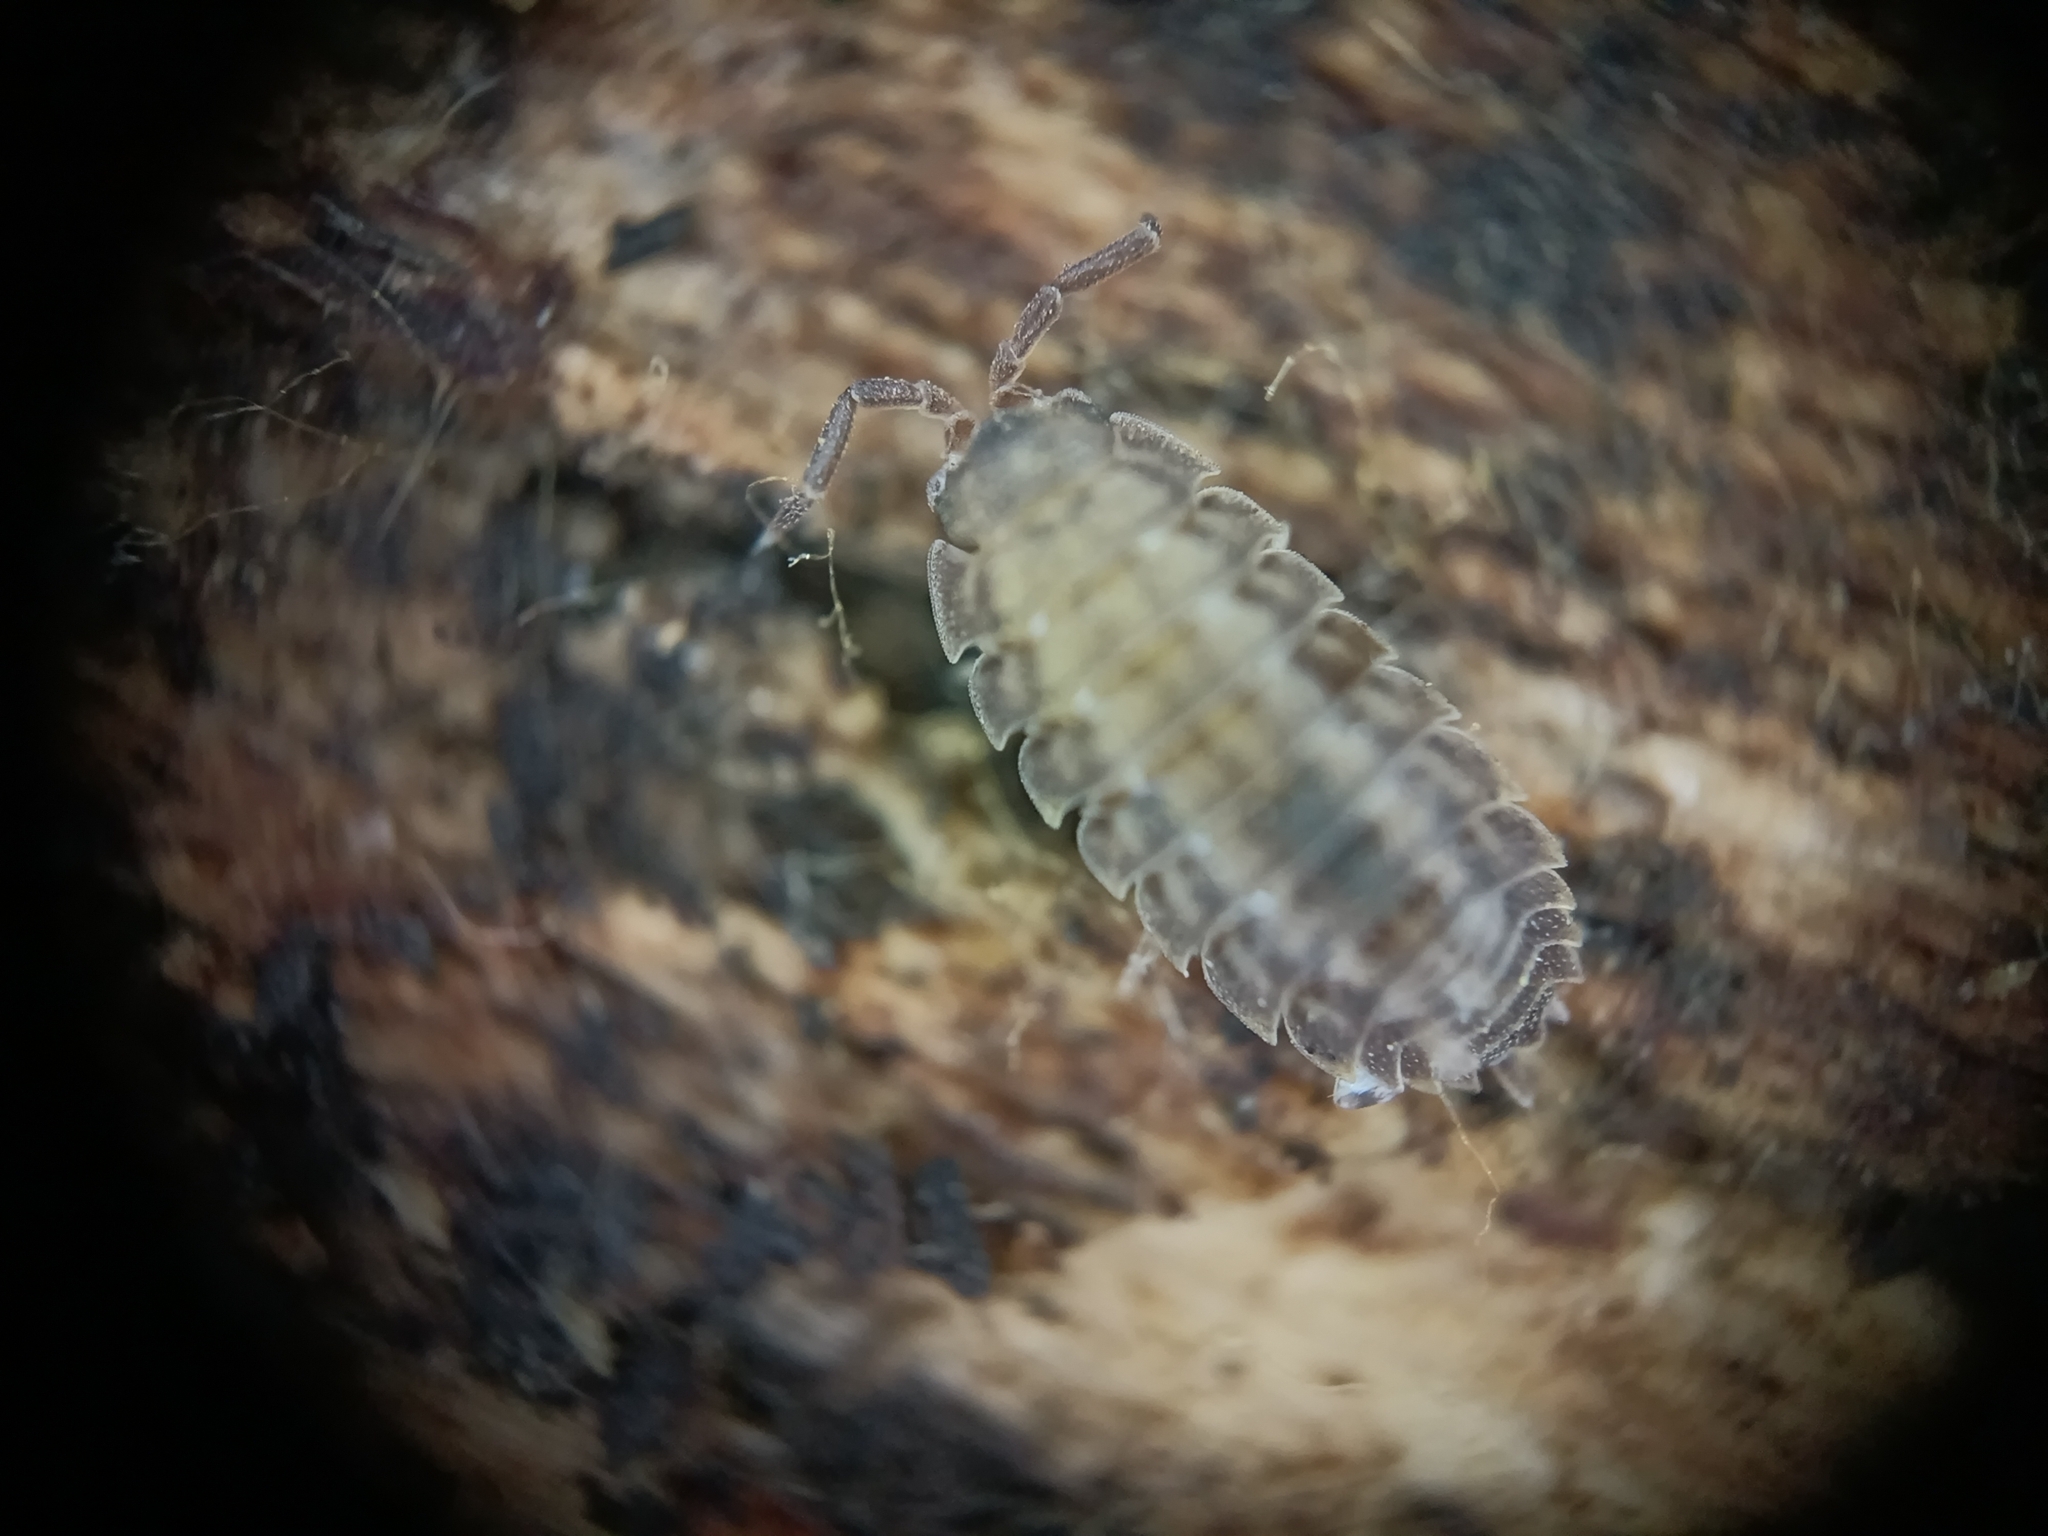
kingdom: Animalia
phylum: Arthropoda
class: Malacostraca
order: Isopoda
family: Trachelipodidae
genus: Trachelipus
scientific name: Trachelipus rathkii
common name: Isopod
